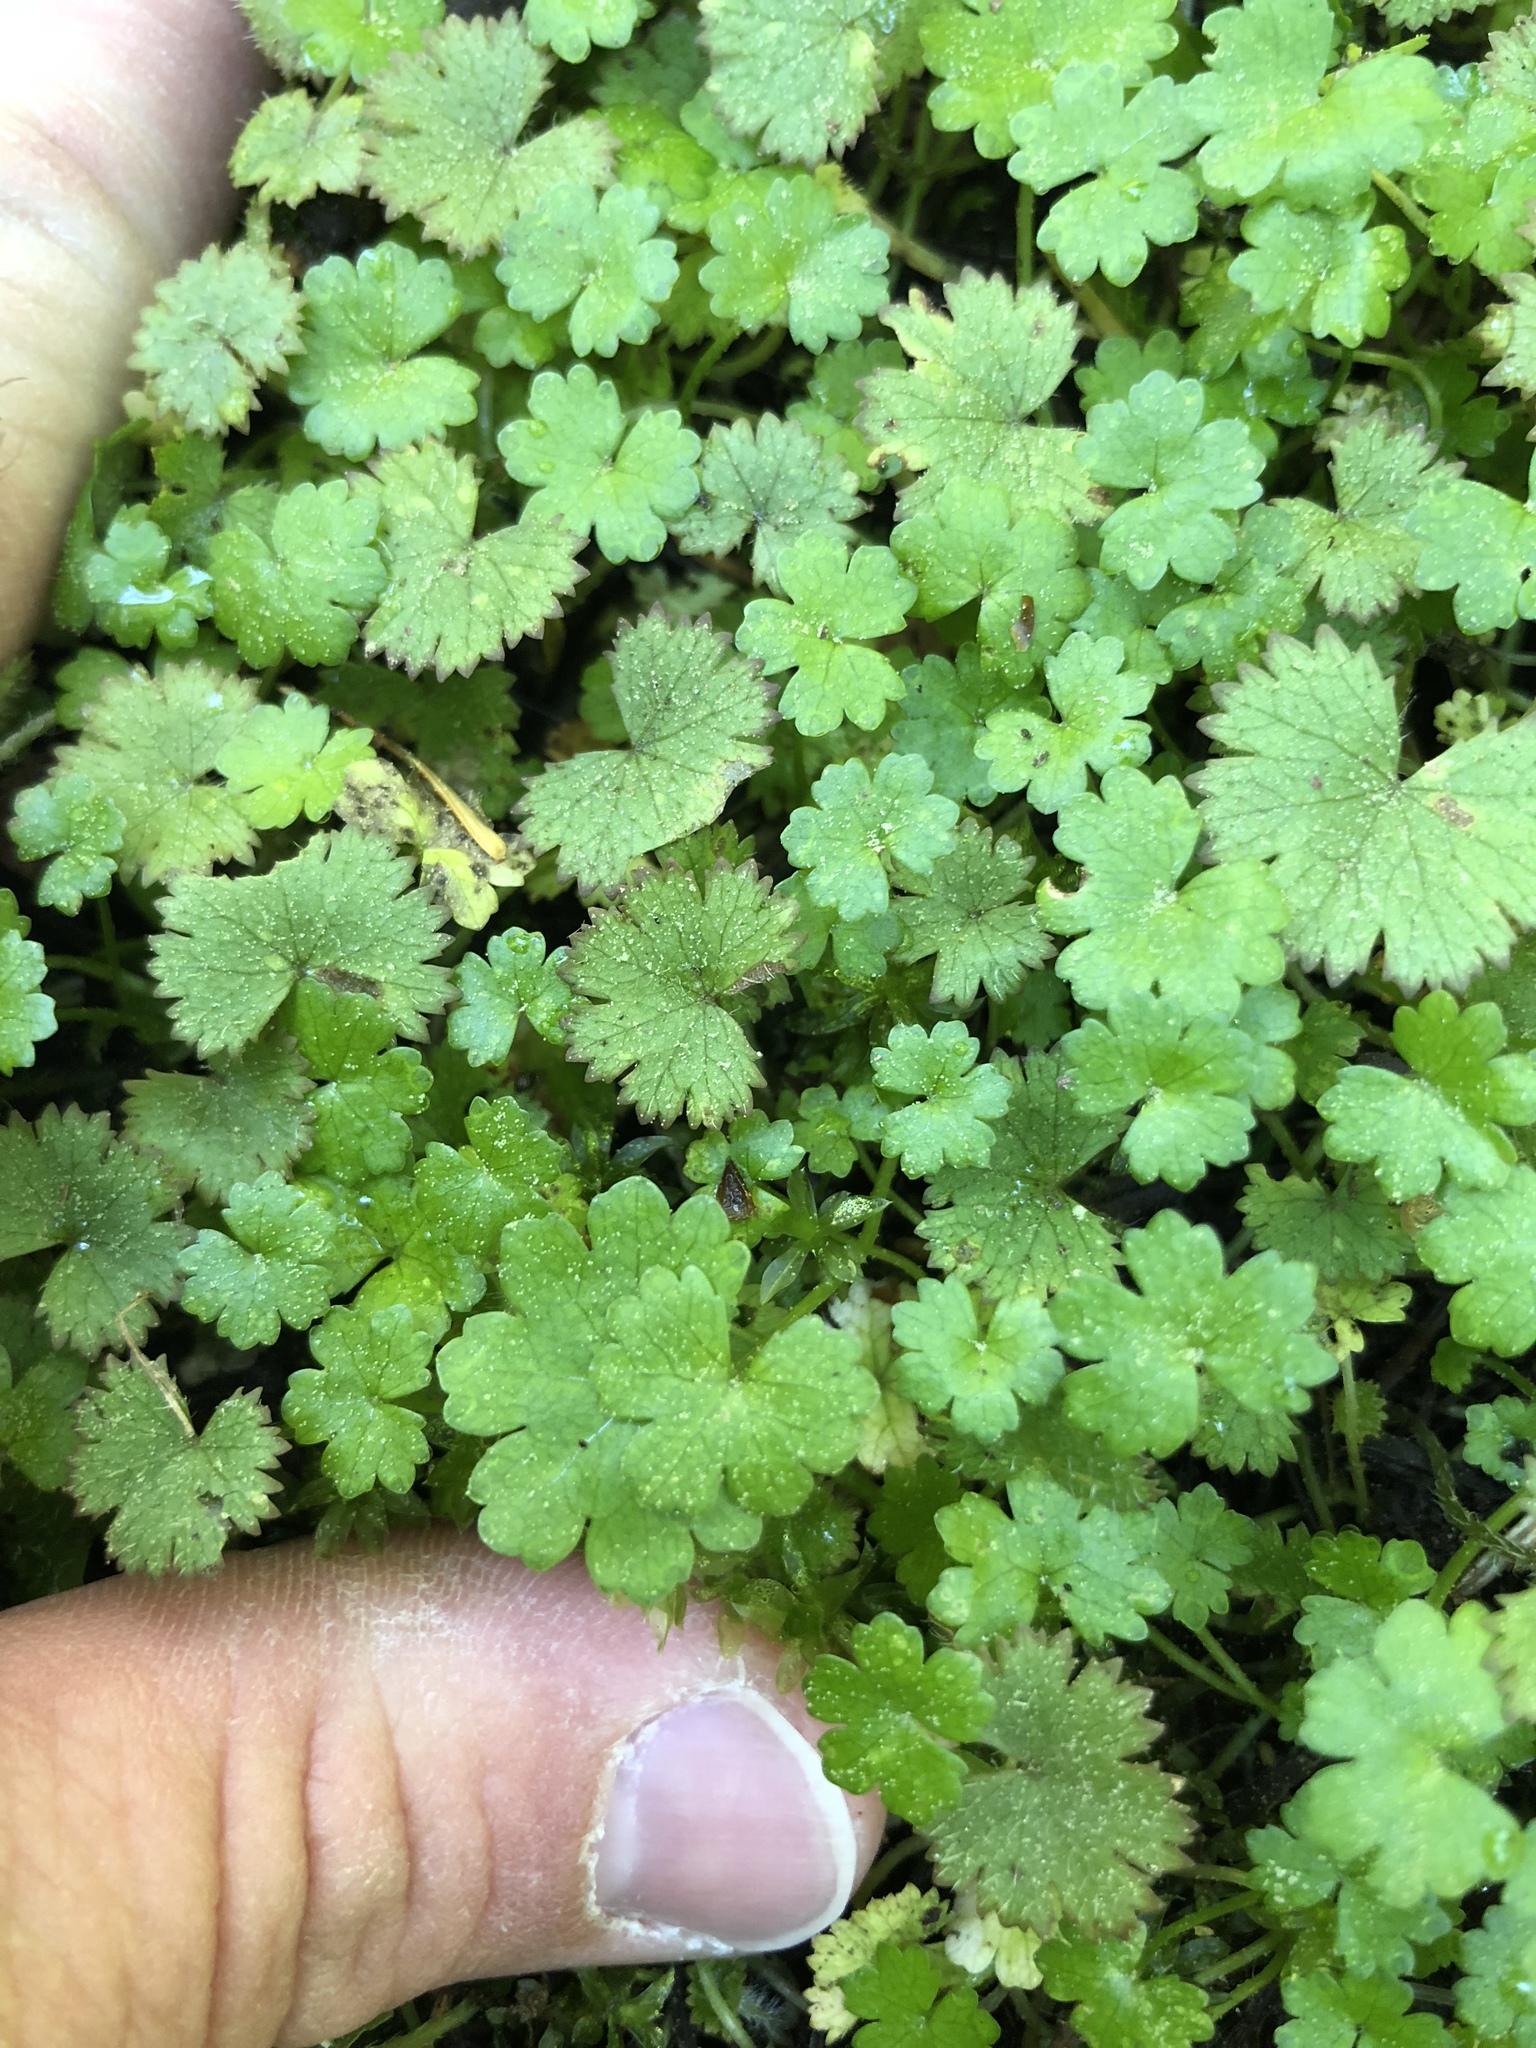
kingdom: Plantae
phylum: Tracheophyta
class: Magnoliopsida
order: Apiales
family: Araliaceae
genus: Hydrocotyle
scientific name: Hydrocotyle moschata
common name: Hairy pennywort
